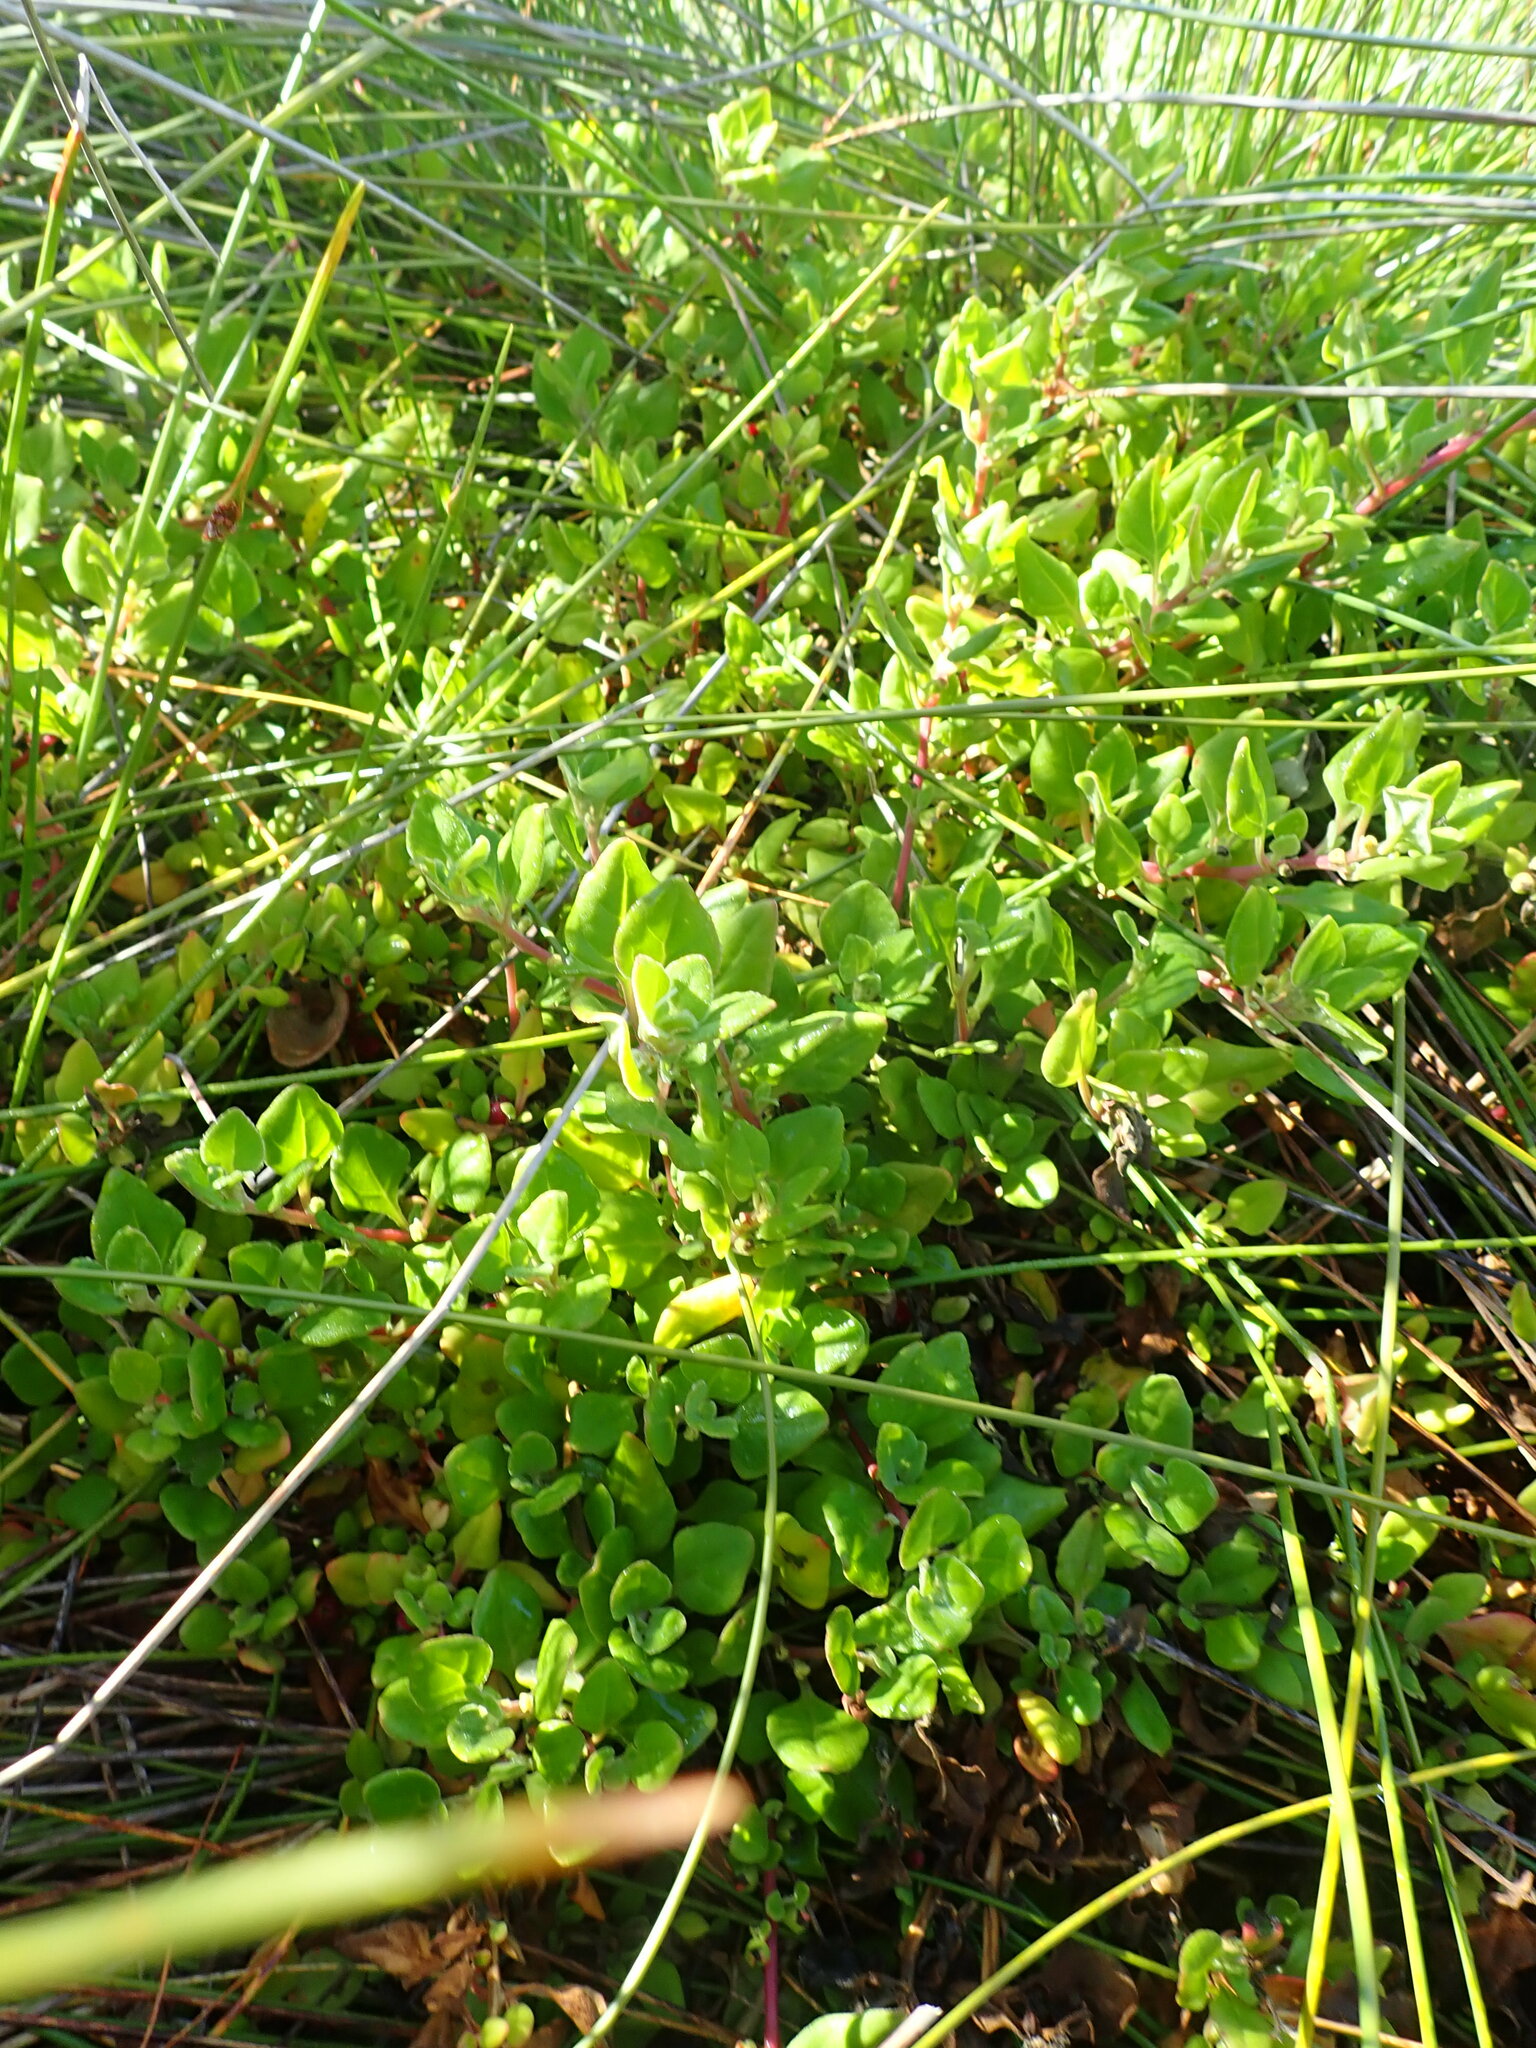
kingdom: Plantae
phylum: Tracheophyta
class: Magnoliopsida
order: Caryophyllales
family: Aizoaceae
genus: Tetragonia
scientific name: Tetragonia implexicoma
